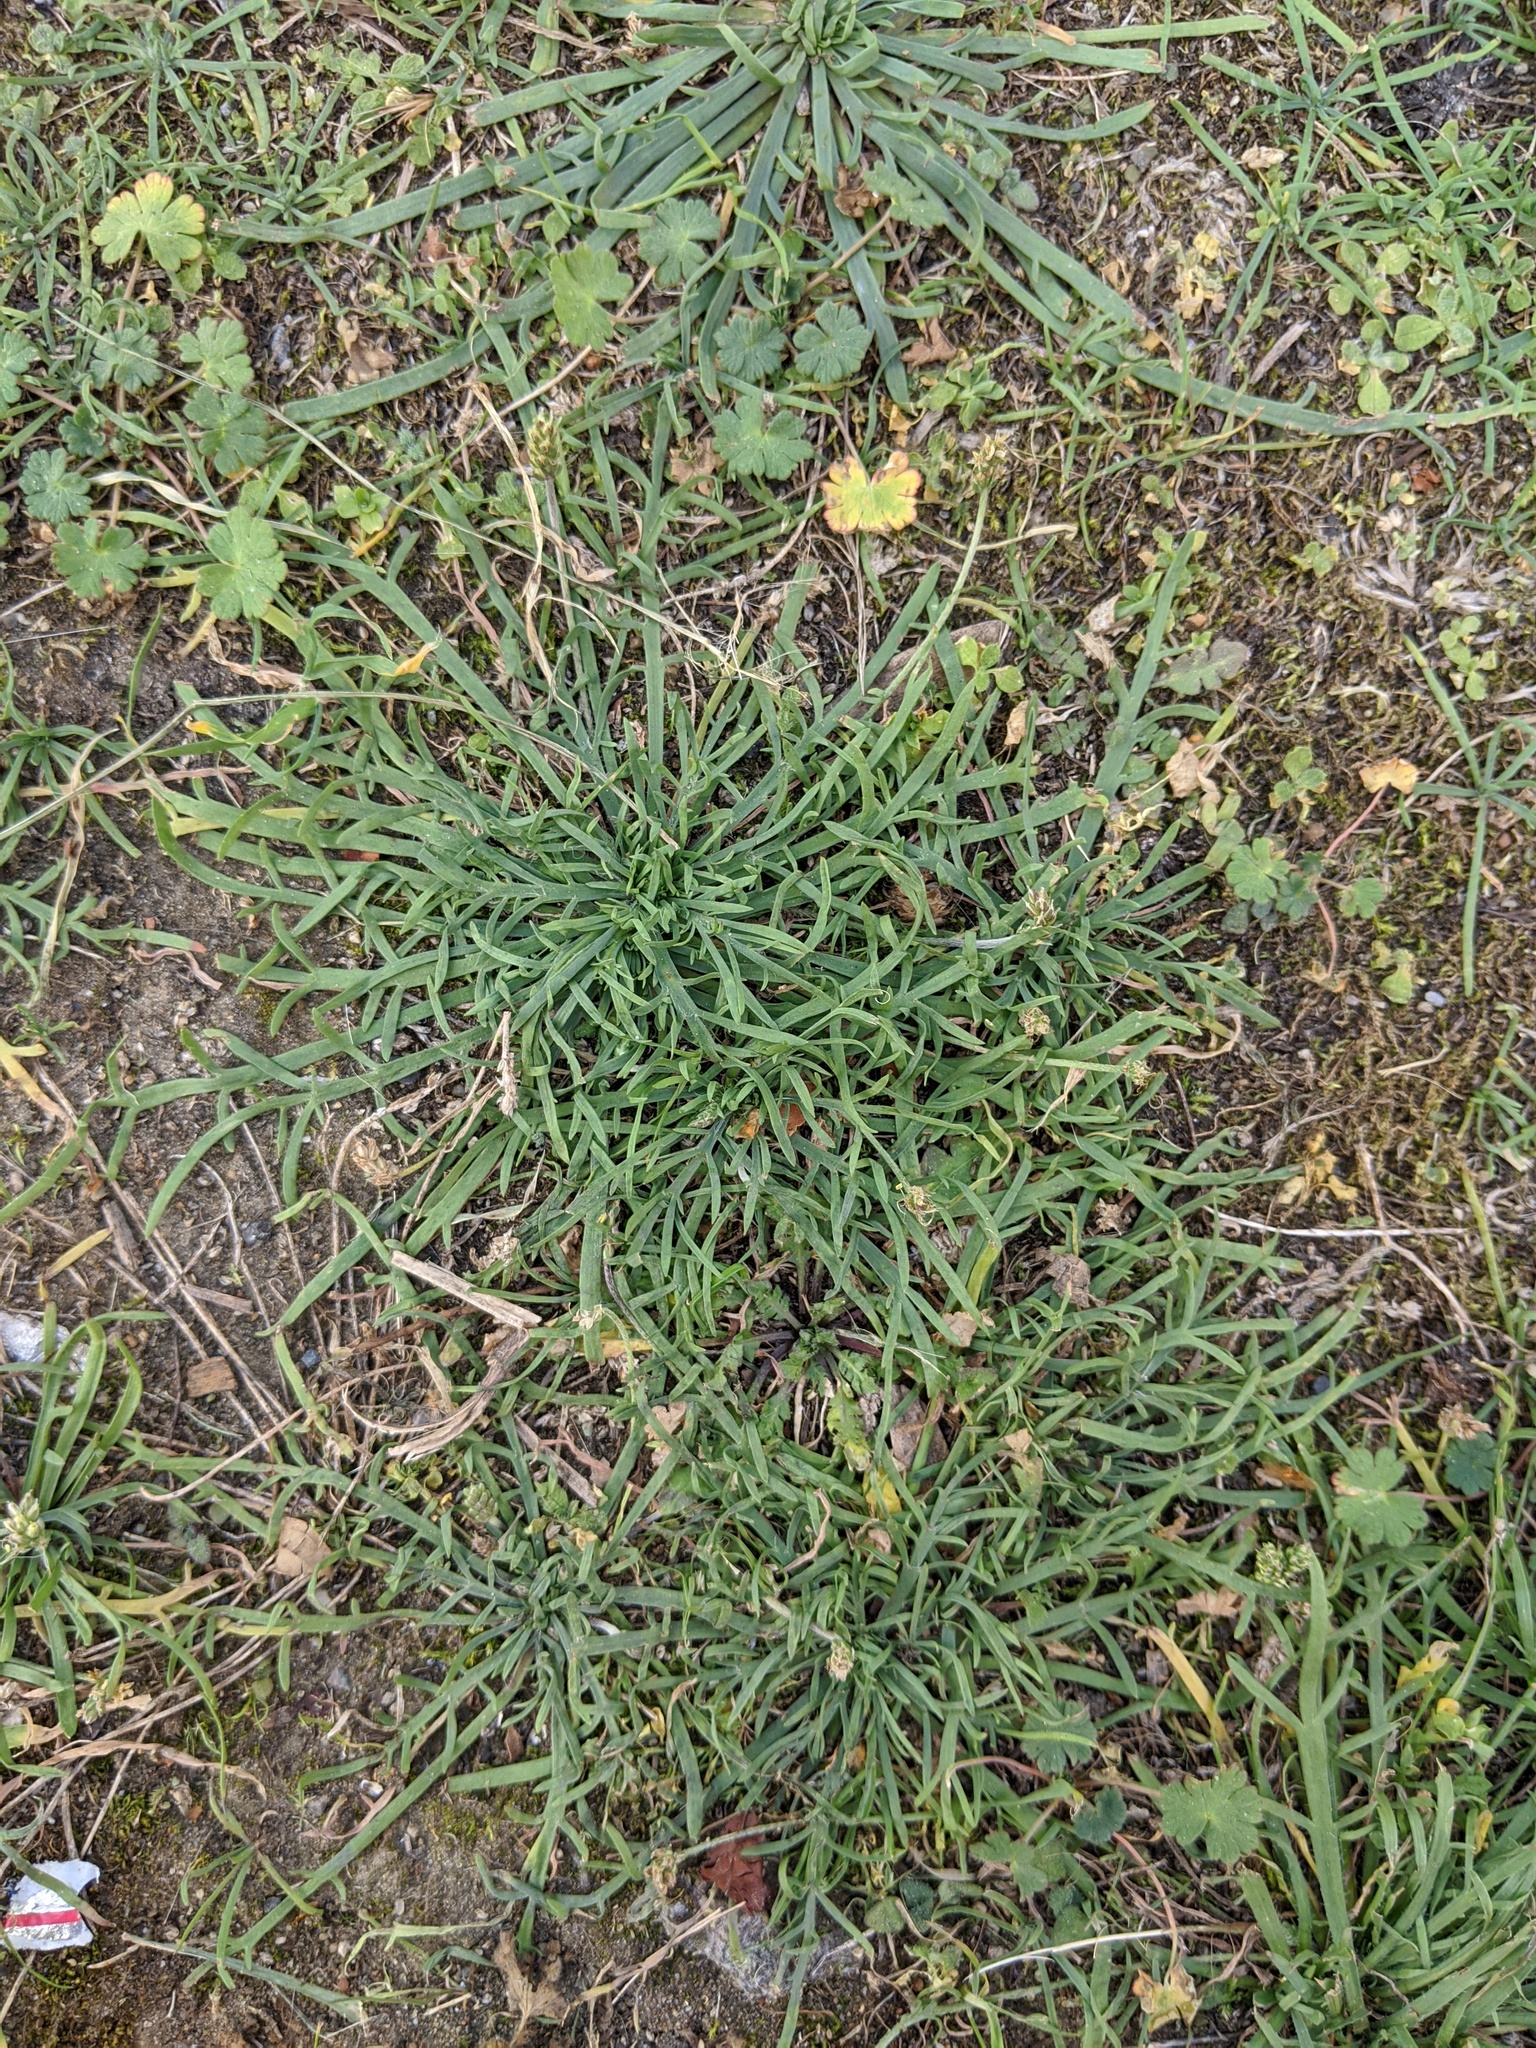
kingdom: Plantae
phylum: Tracheophyta
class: Magnoliopsida
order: Lamiales
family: Plantaginaceae
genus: Plantago
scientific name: Plantago coronopus
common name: Buck's-horn plantain
